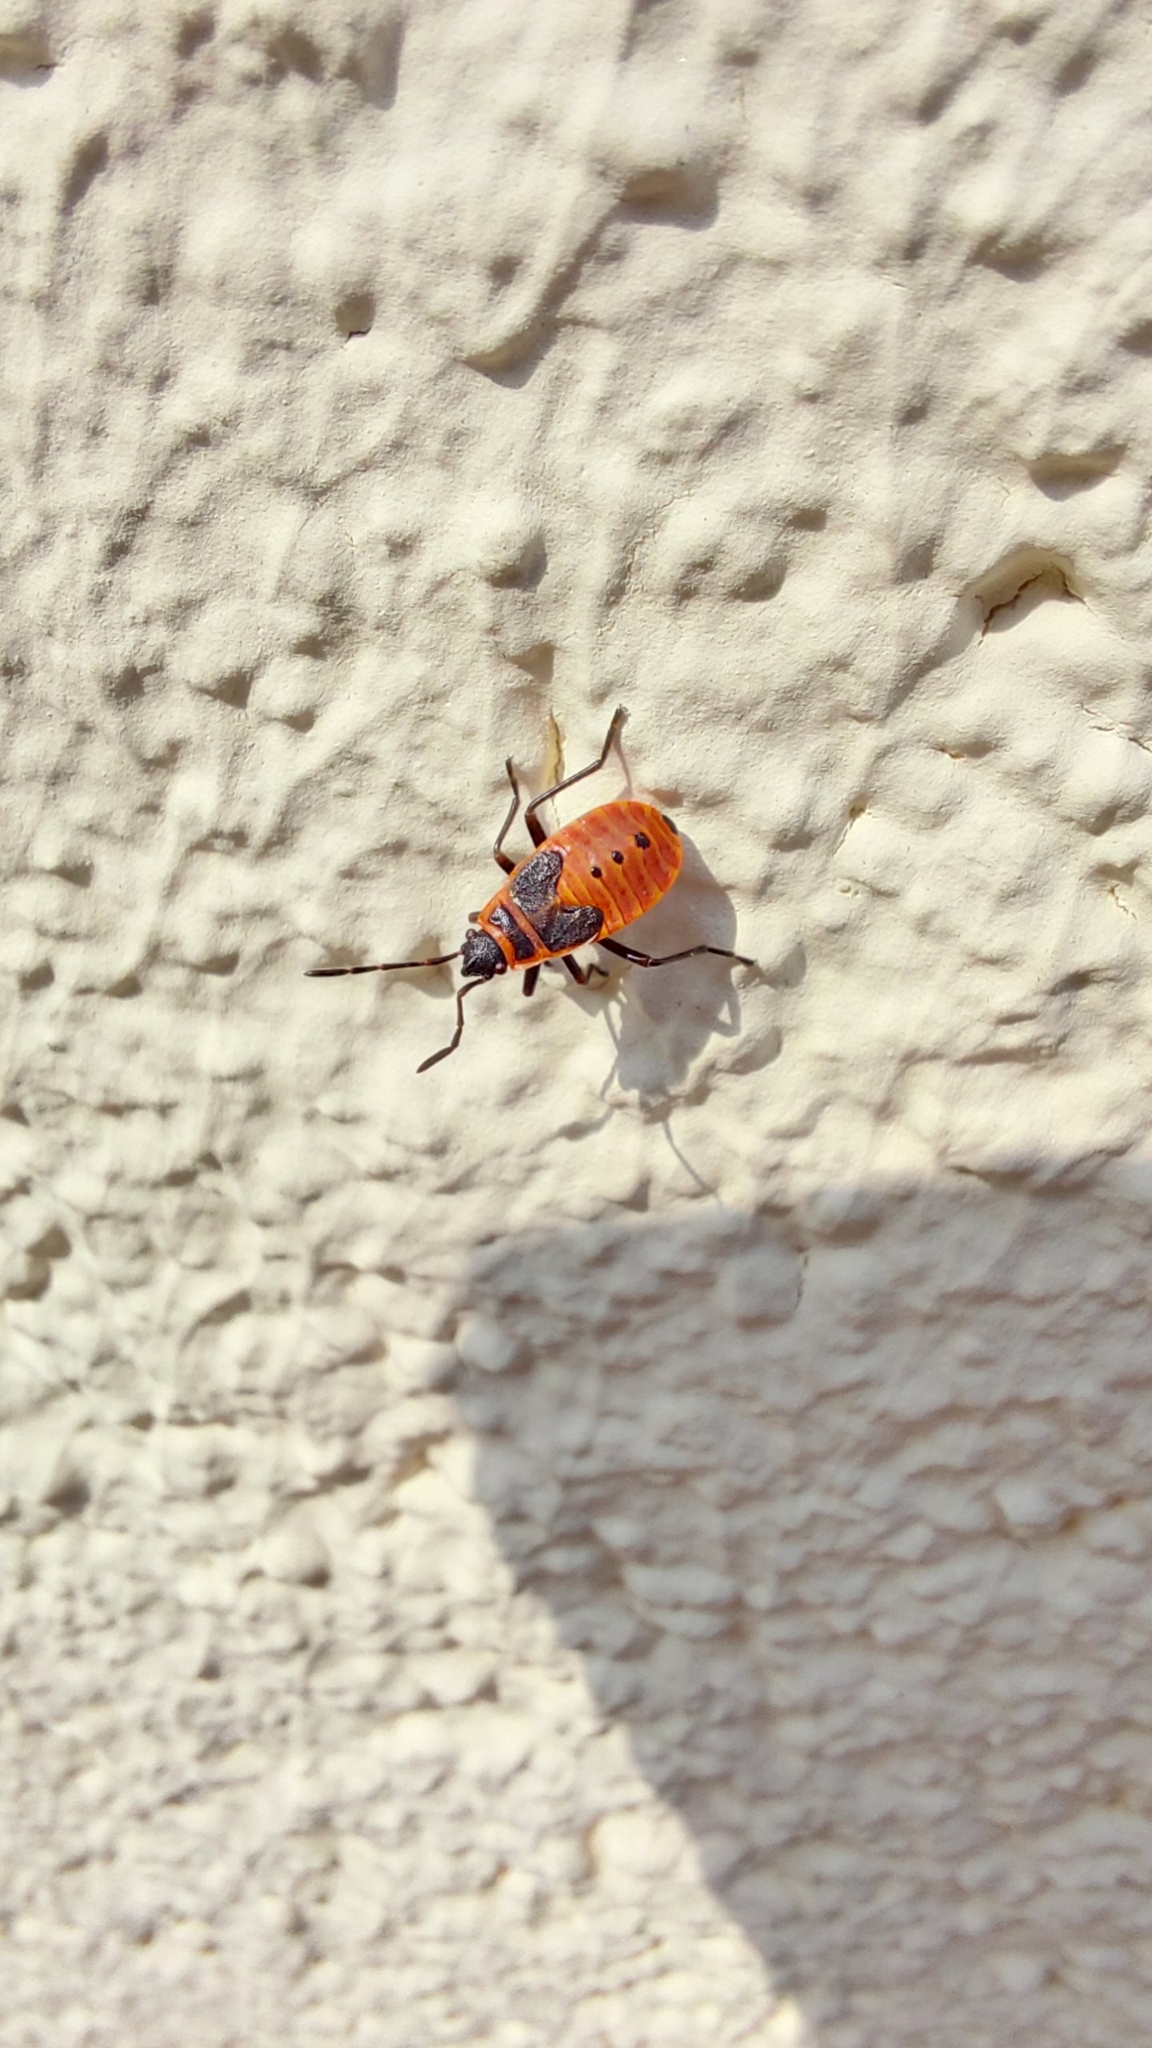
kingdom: Animalia
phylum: Arthropoda
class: Insecta
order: Hemiptera
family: Pyrrhocoridae
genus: Pyrrhocoris
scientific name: Pyrrhocoris apterus
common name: Firebug
